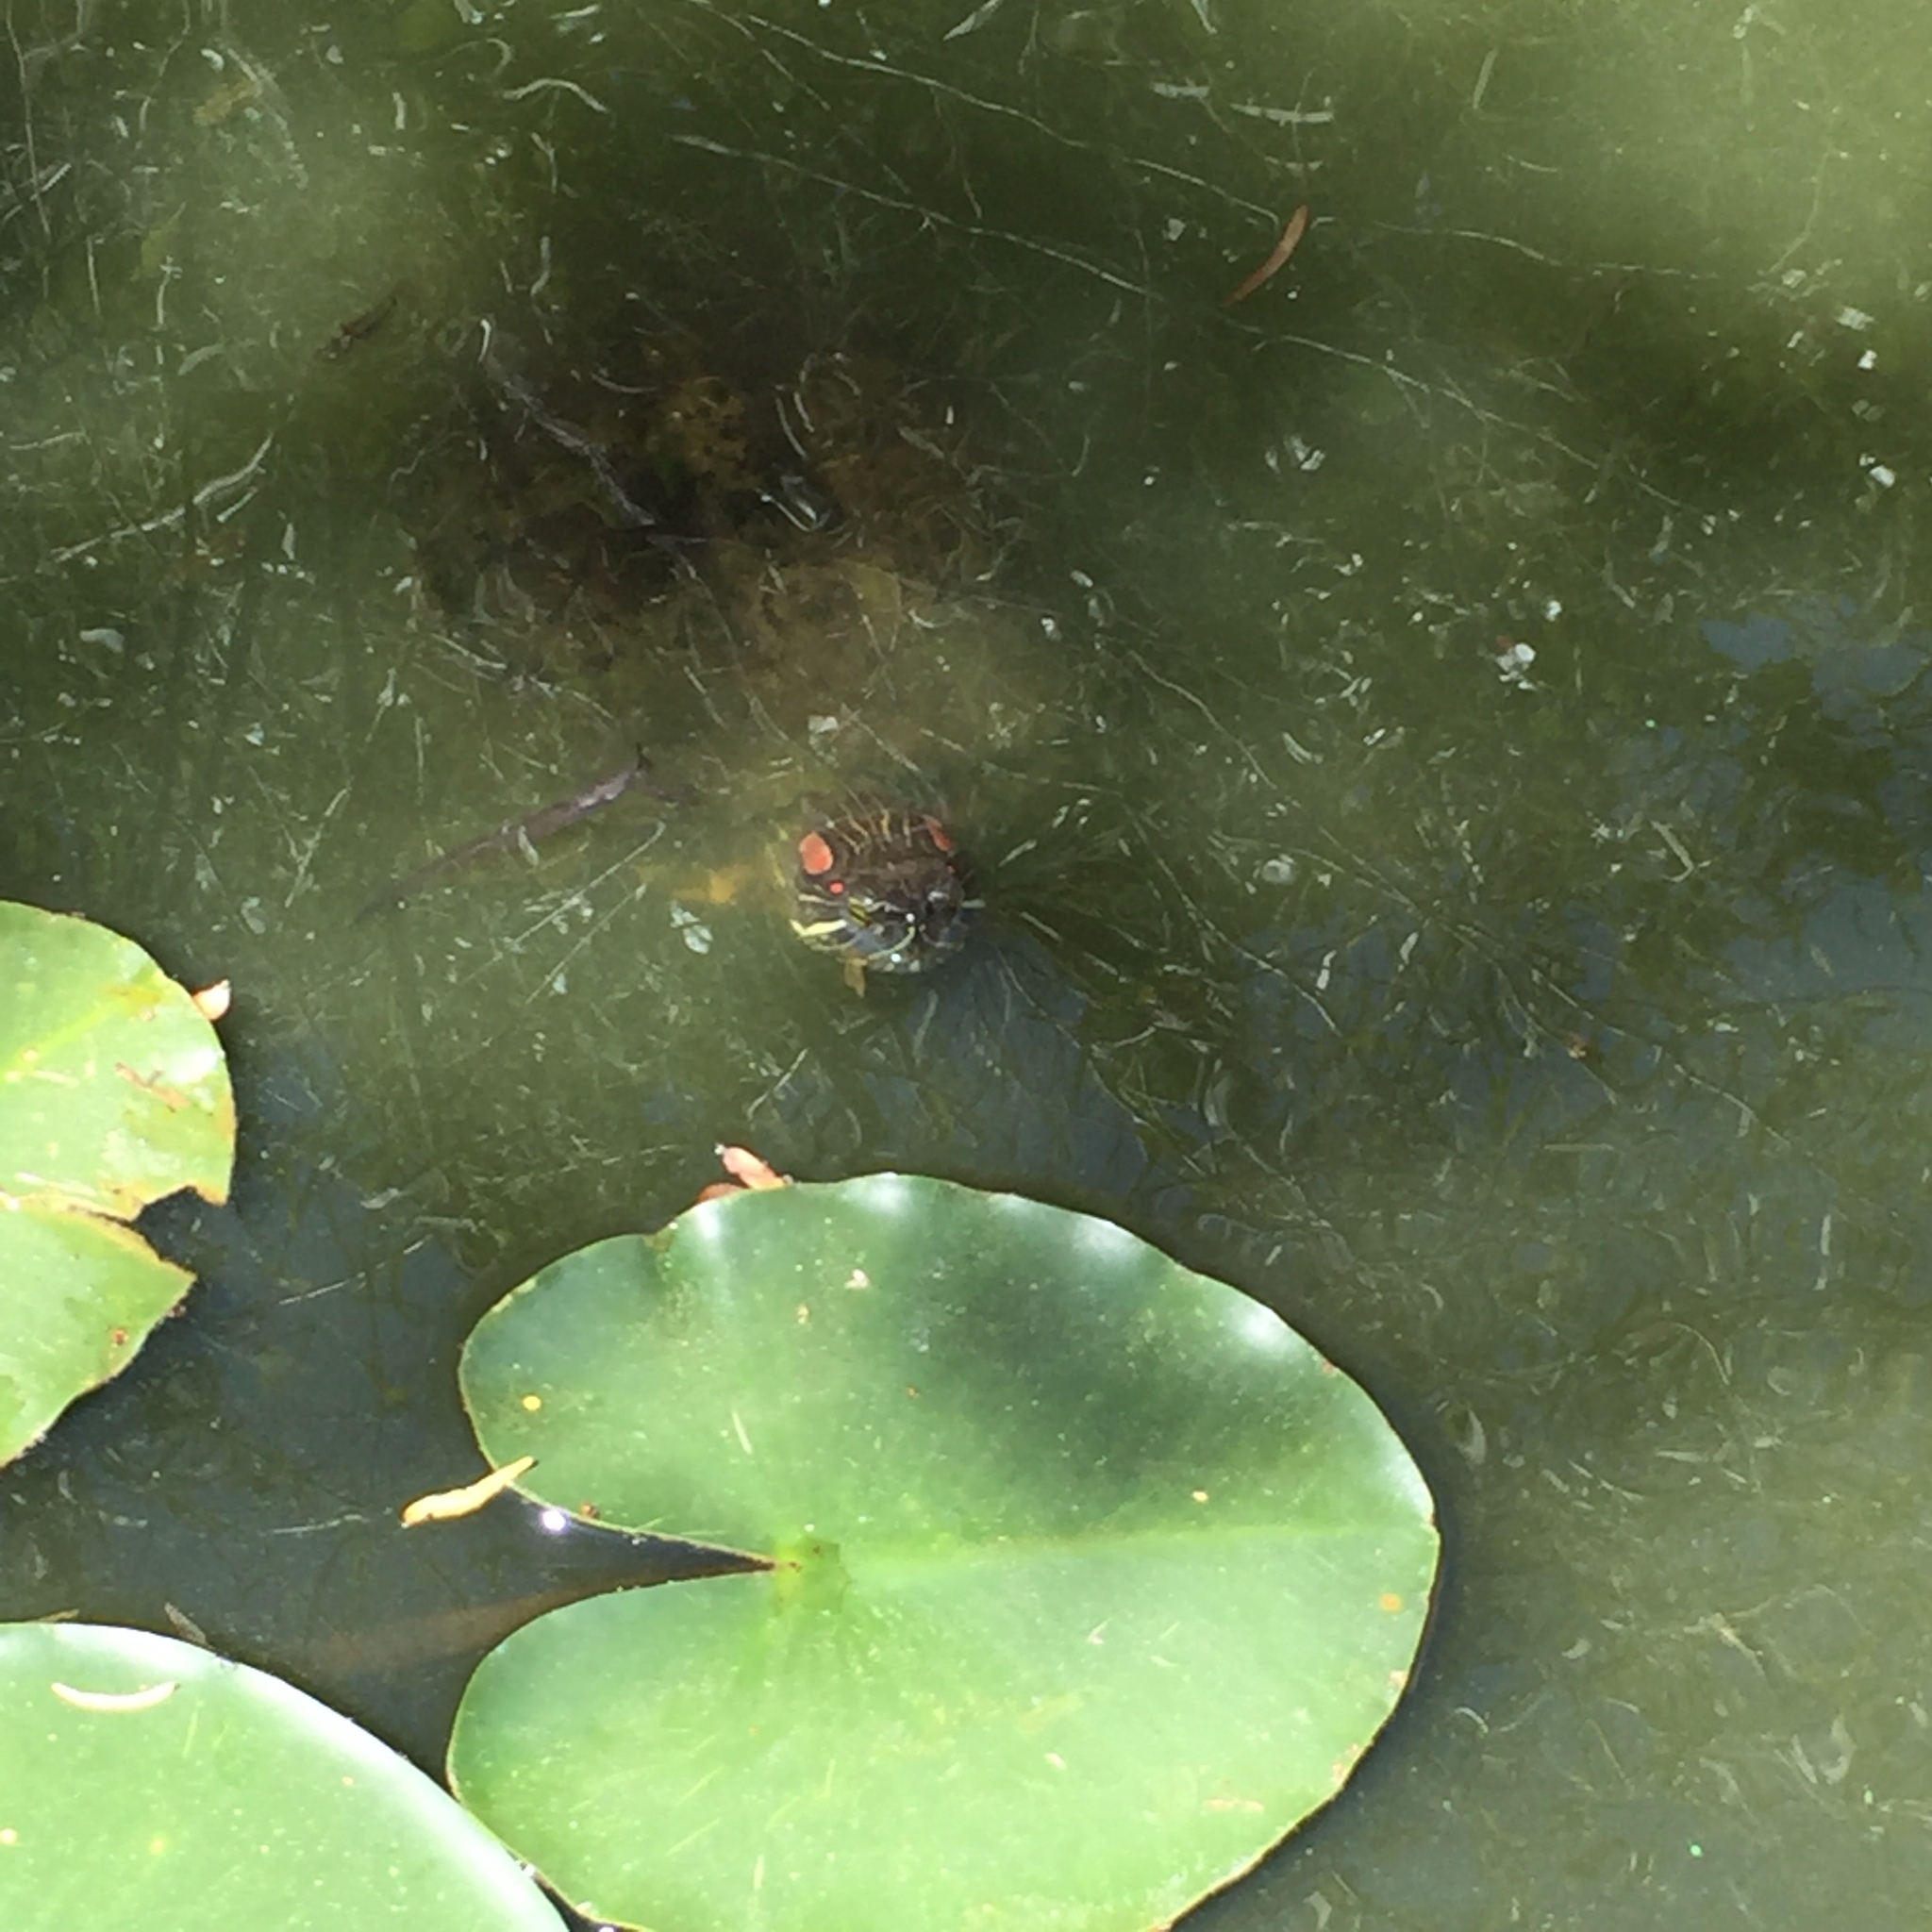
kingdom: Animalia
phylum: Chordata
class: Testudines
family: Emydidae
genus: Trachemys
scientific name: Trachemys scripta
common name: Slider
